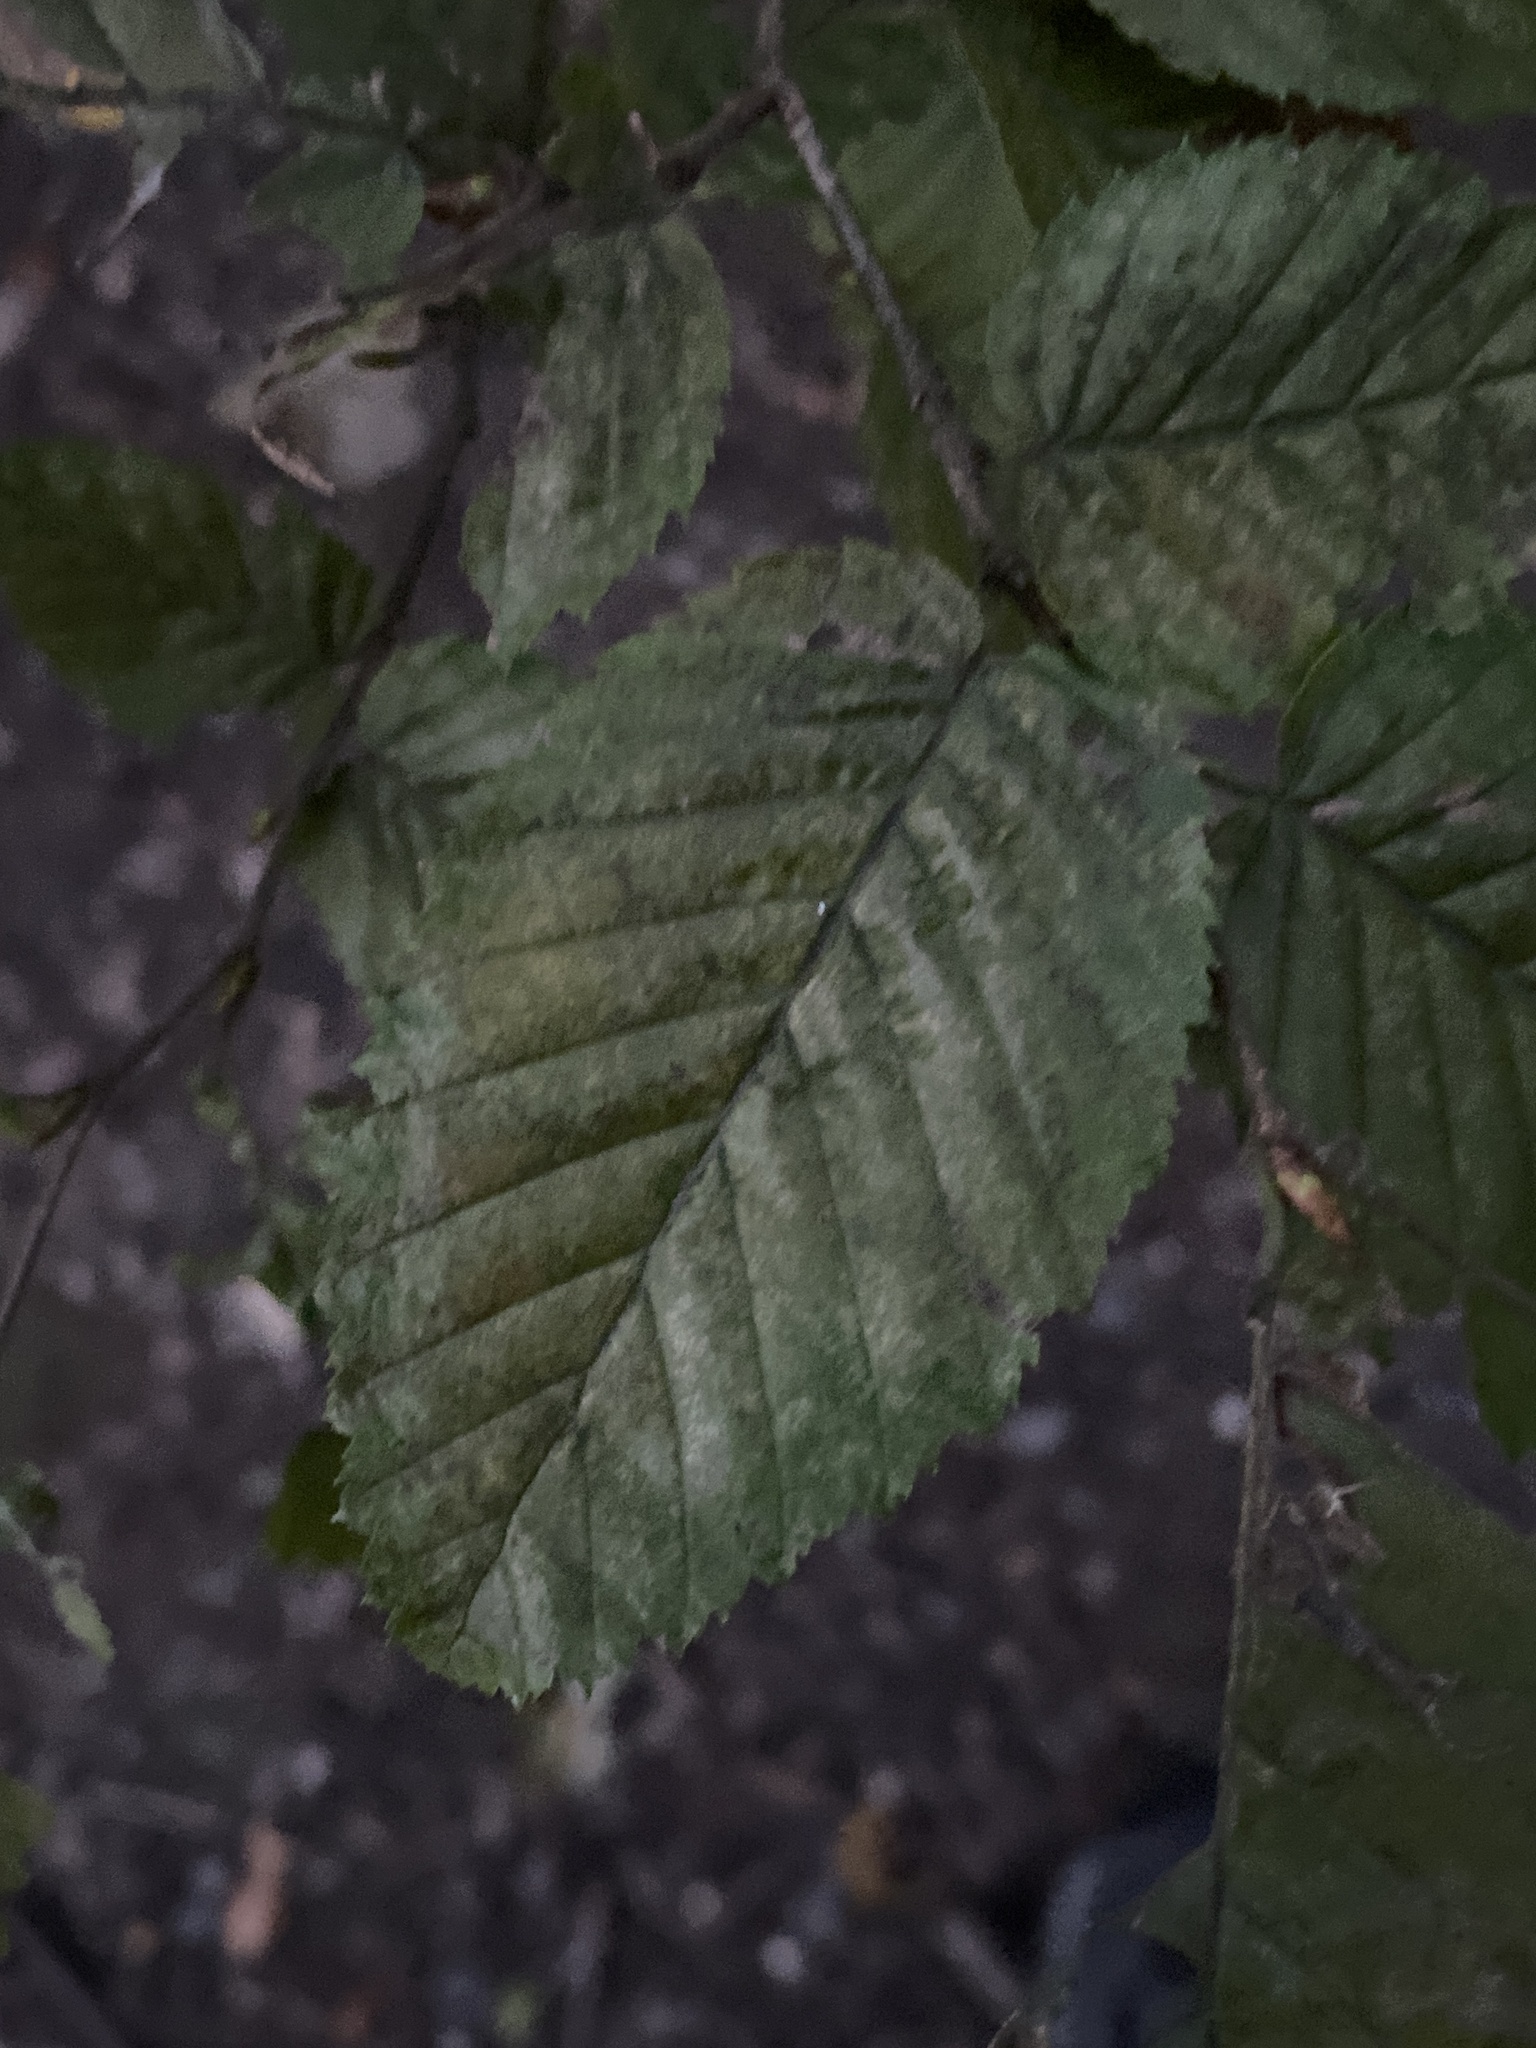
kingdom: Plantae
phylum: Tracheophyta
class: Magnoliopsida
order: Fagales
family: Betulaceae
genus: Carpinus
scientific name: Carpinus betulus
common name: Hornbeam
